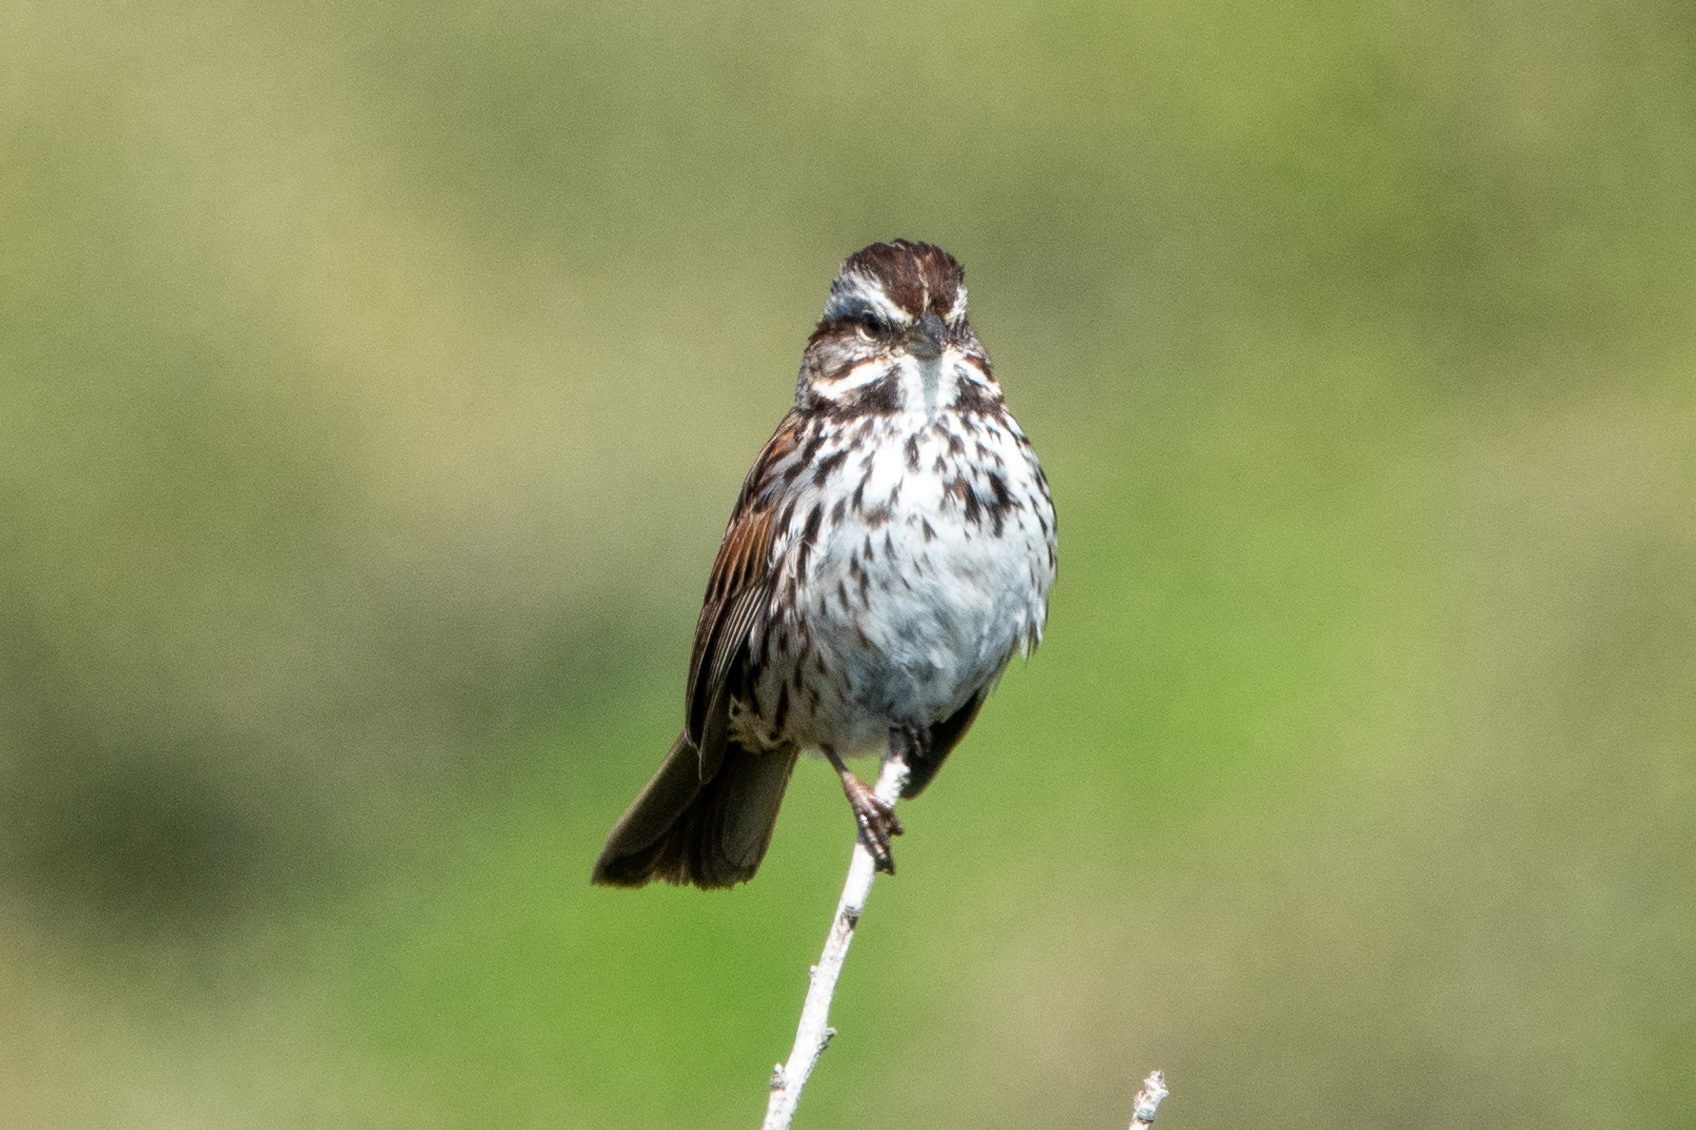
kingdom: Animalia
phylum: Chordata
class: Aves
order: Passeriformes
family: Passerellidae
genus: Melospiza
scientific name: Melospiza melodia
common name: Song sparrow
